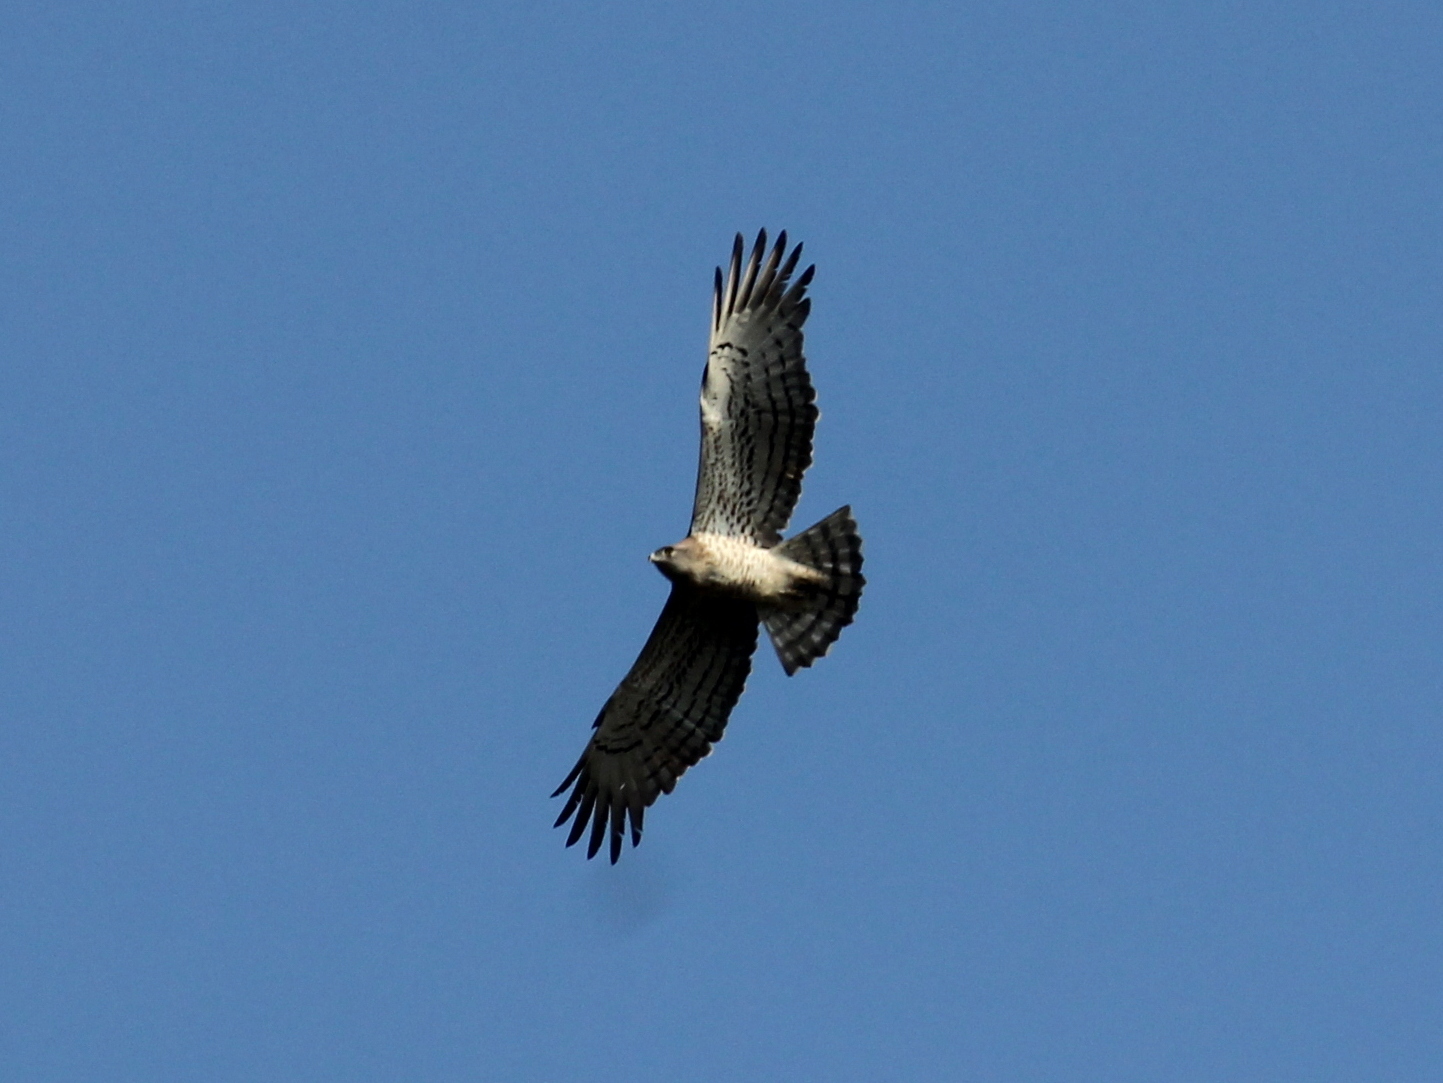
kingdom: Animalia
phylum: Chordata
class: Aves
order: Accipitriformes
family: Accipitridae
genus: Circaetus
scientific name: Circaetus gallicus
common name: Short-toed snake eagle
